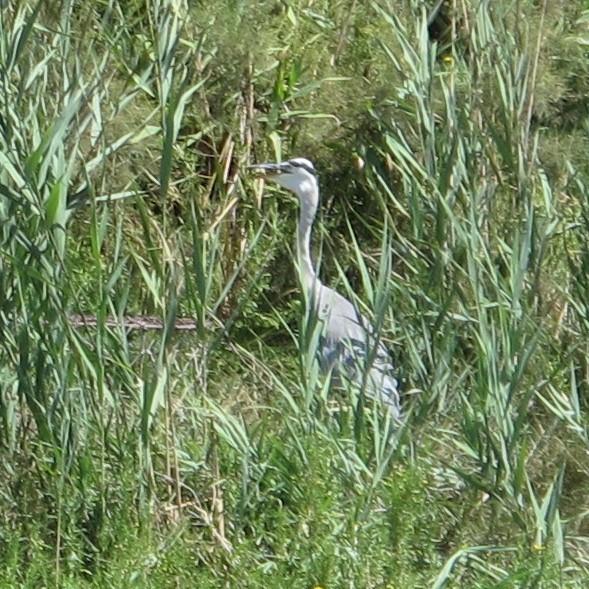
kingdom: Animalia
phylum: Chordata
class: Aves
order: Pelecaniformes
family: Ardeidae
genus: Ardea
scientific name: Ardea cinerea
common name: Grey heron
